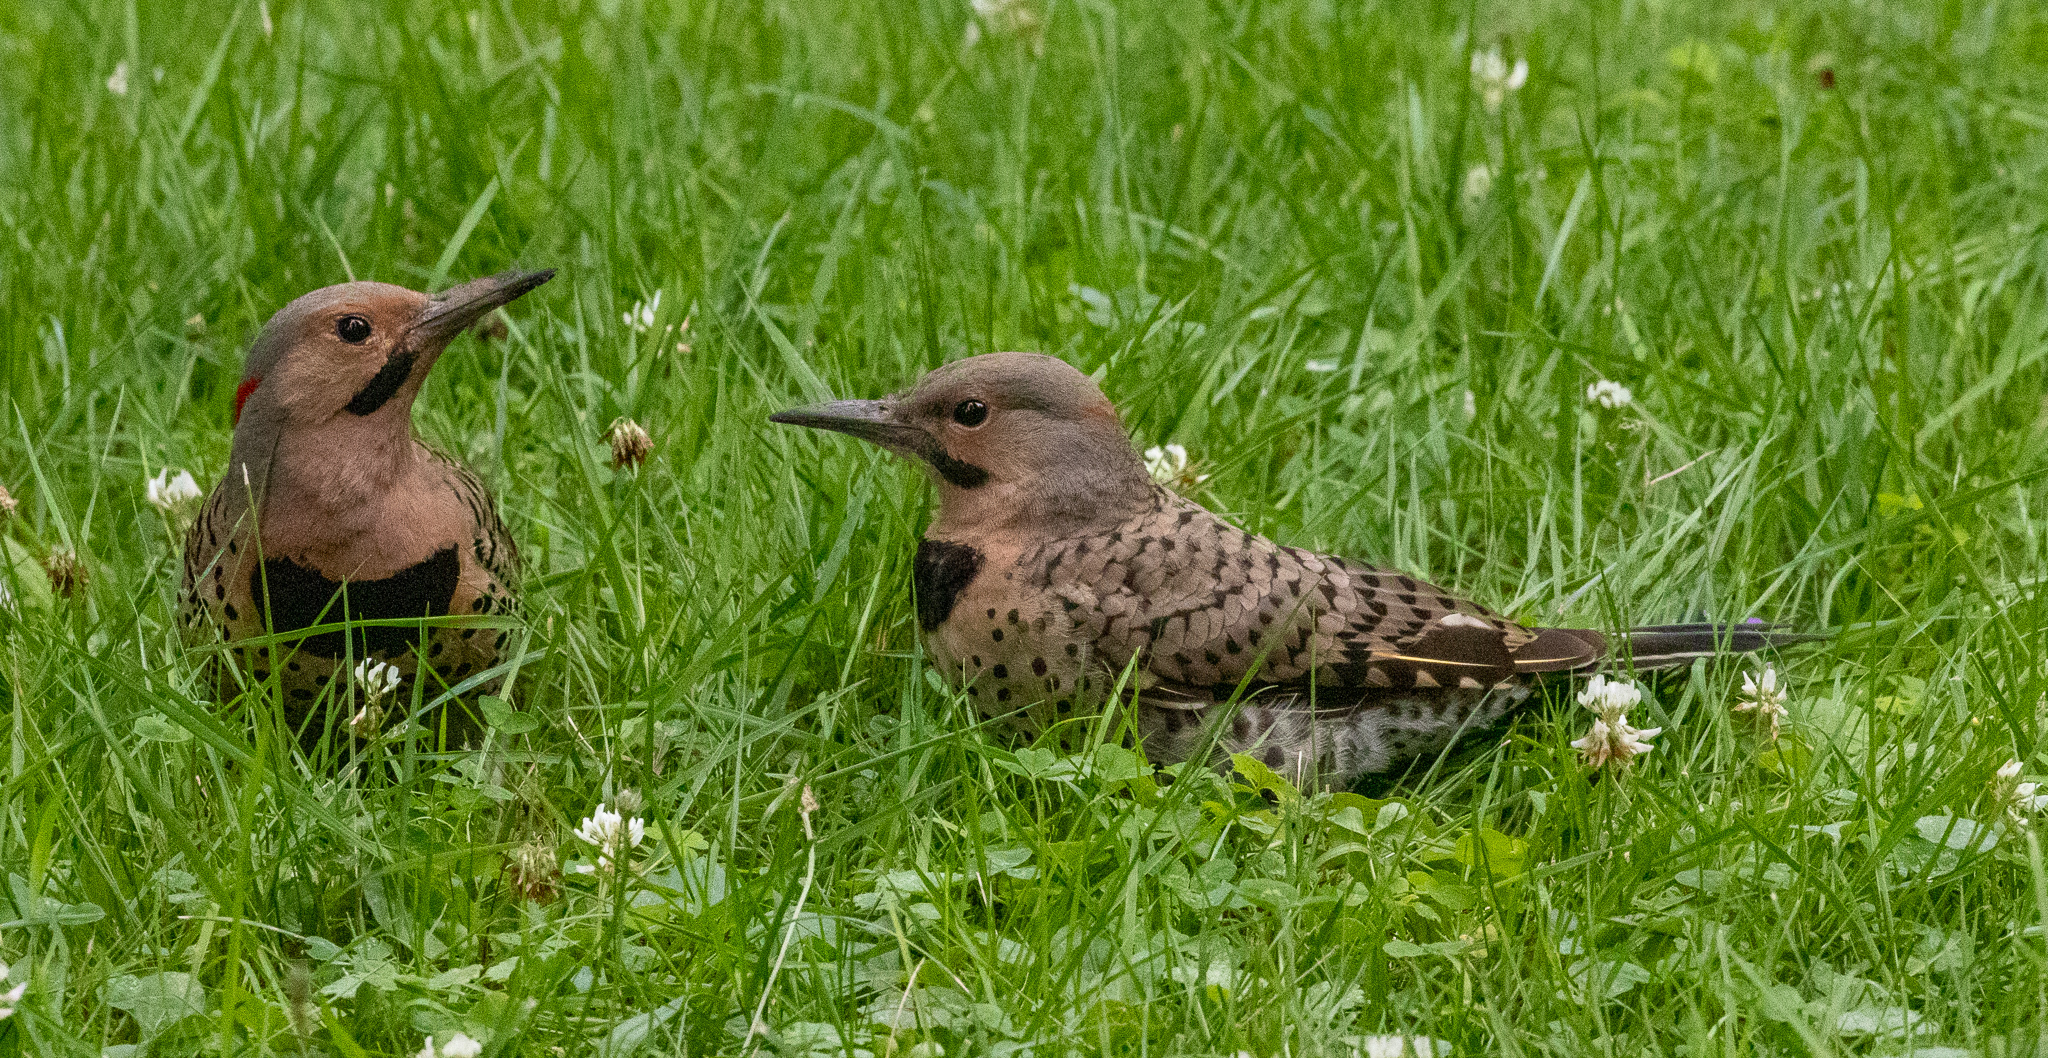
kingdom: Animalia
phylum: Chordata
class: Aves
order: Piciformes
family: Picidae
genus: Colaptes
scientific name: Colaptes auratus
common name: Northern flicker
